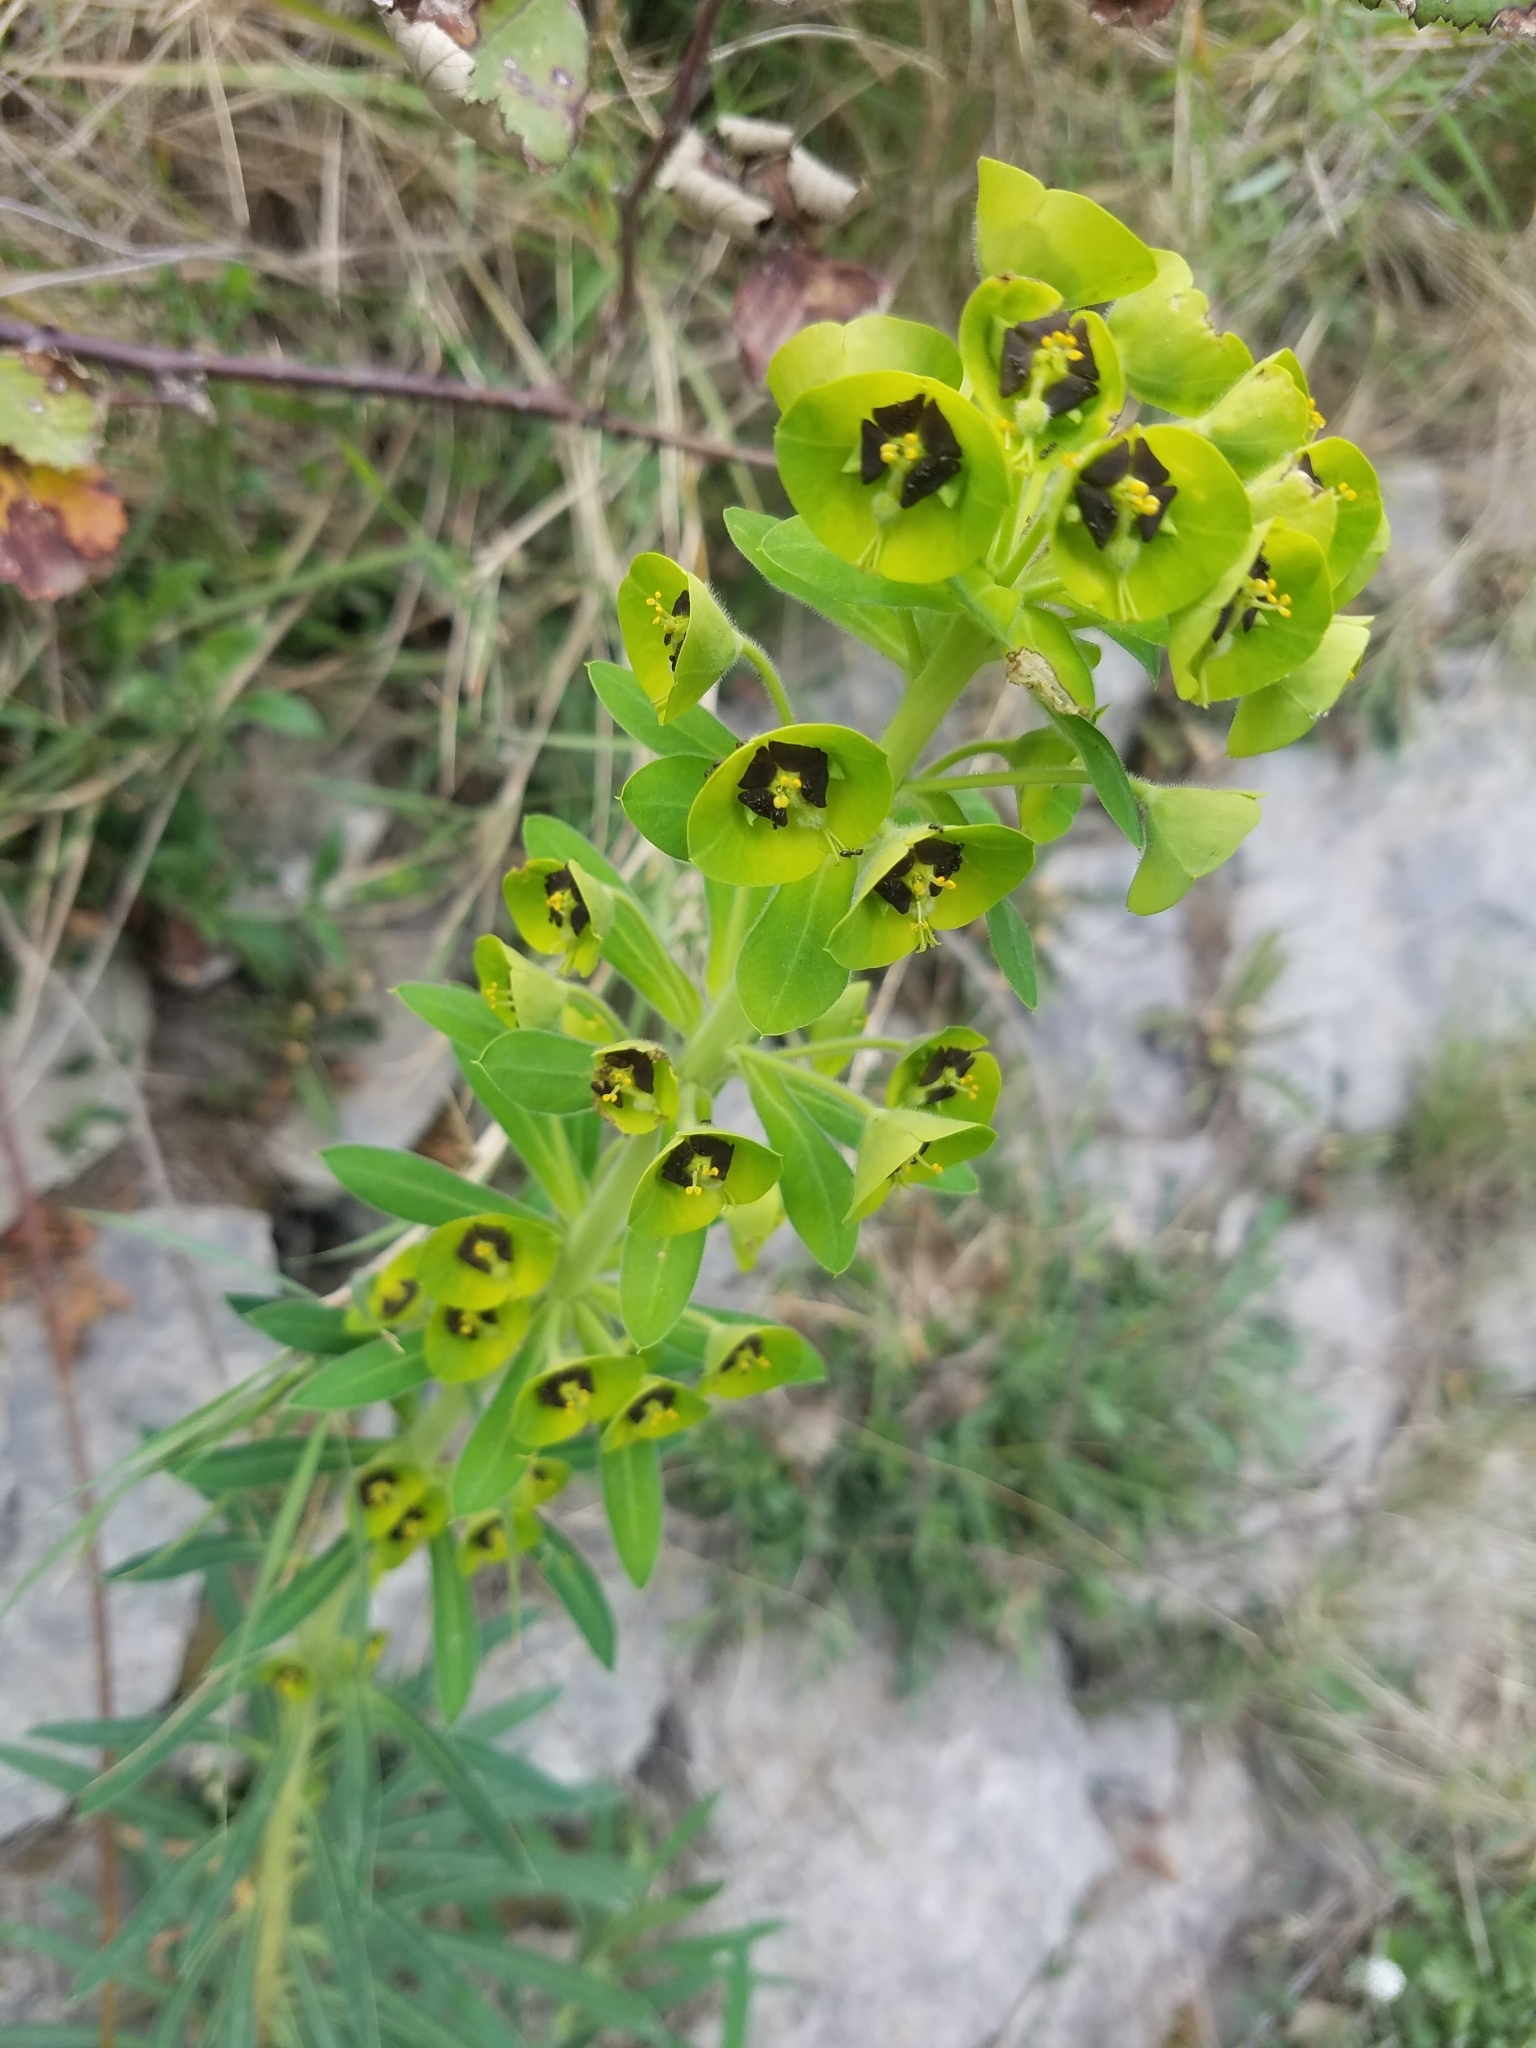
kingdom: Plantae
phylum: Tracheophyta
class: Magnoliopsida
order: Malpighiales
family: Euphorbiaceae
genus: Euphorbia
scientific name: Euphorbia characias
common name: Mediterranean spurge
